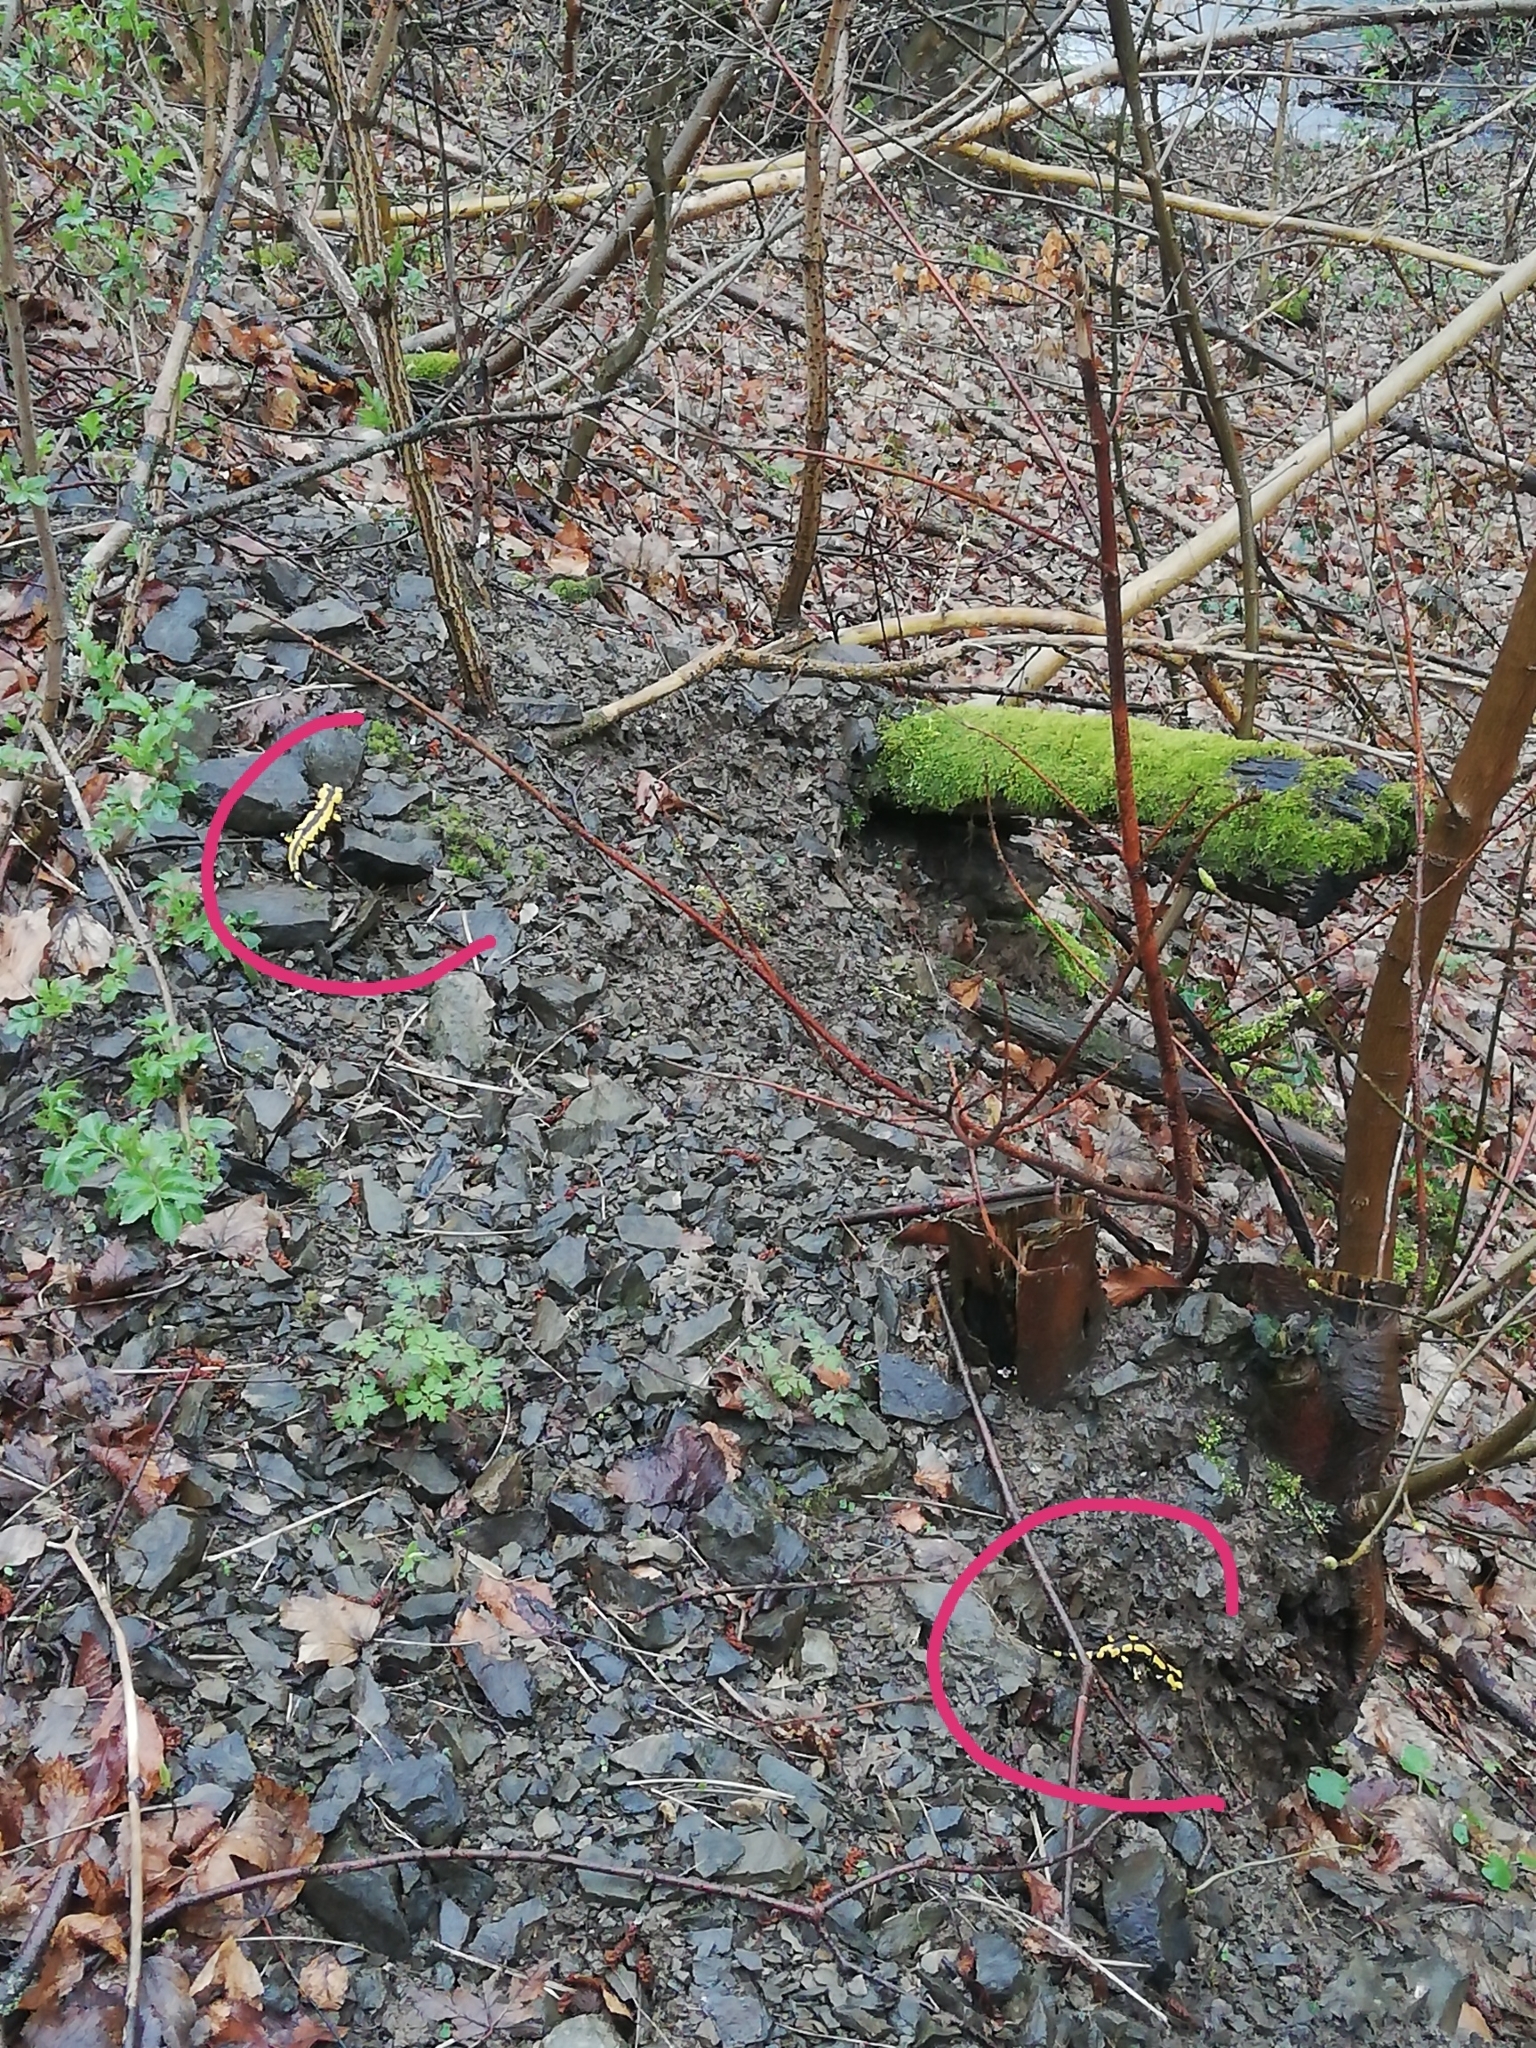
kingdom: Animalia
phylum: Chordata
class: Amphibia
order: Caudata
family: Salamandridae
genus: Salamandra
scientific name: Salamandra salamandra
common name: Fire salamander
